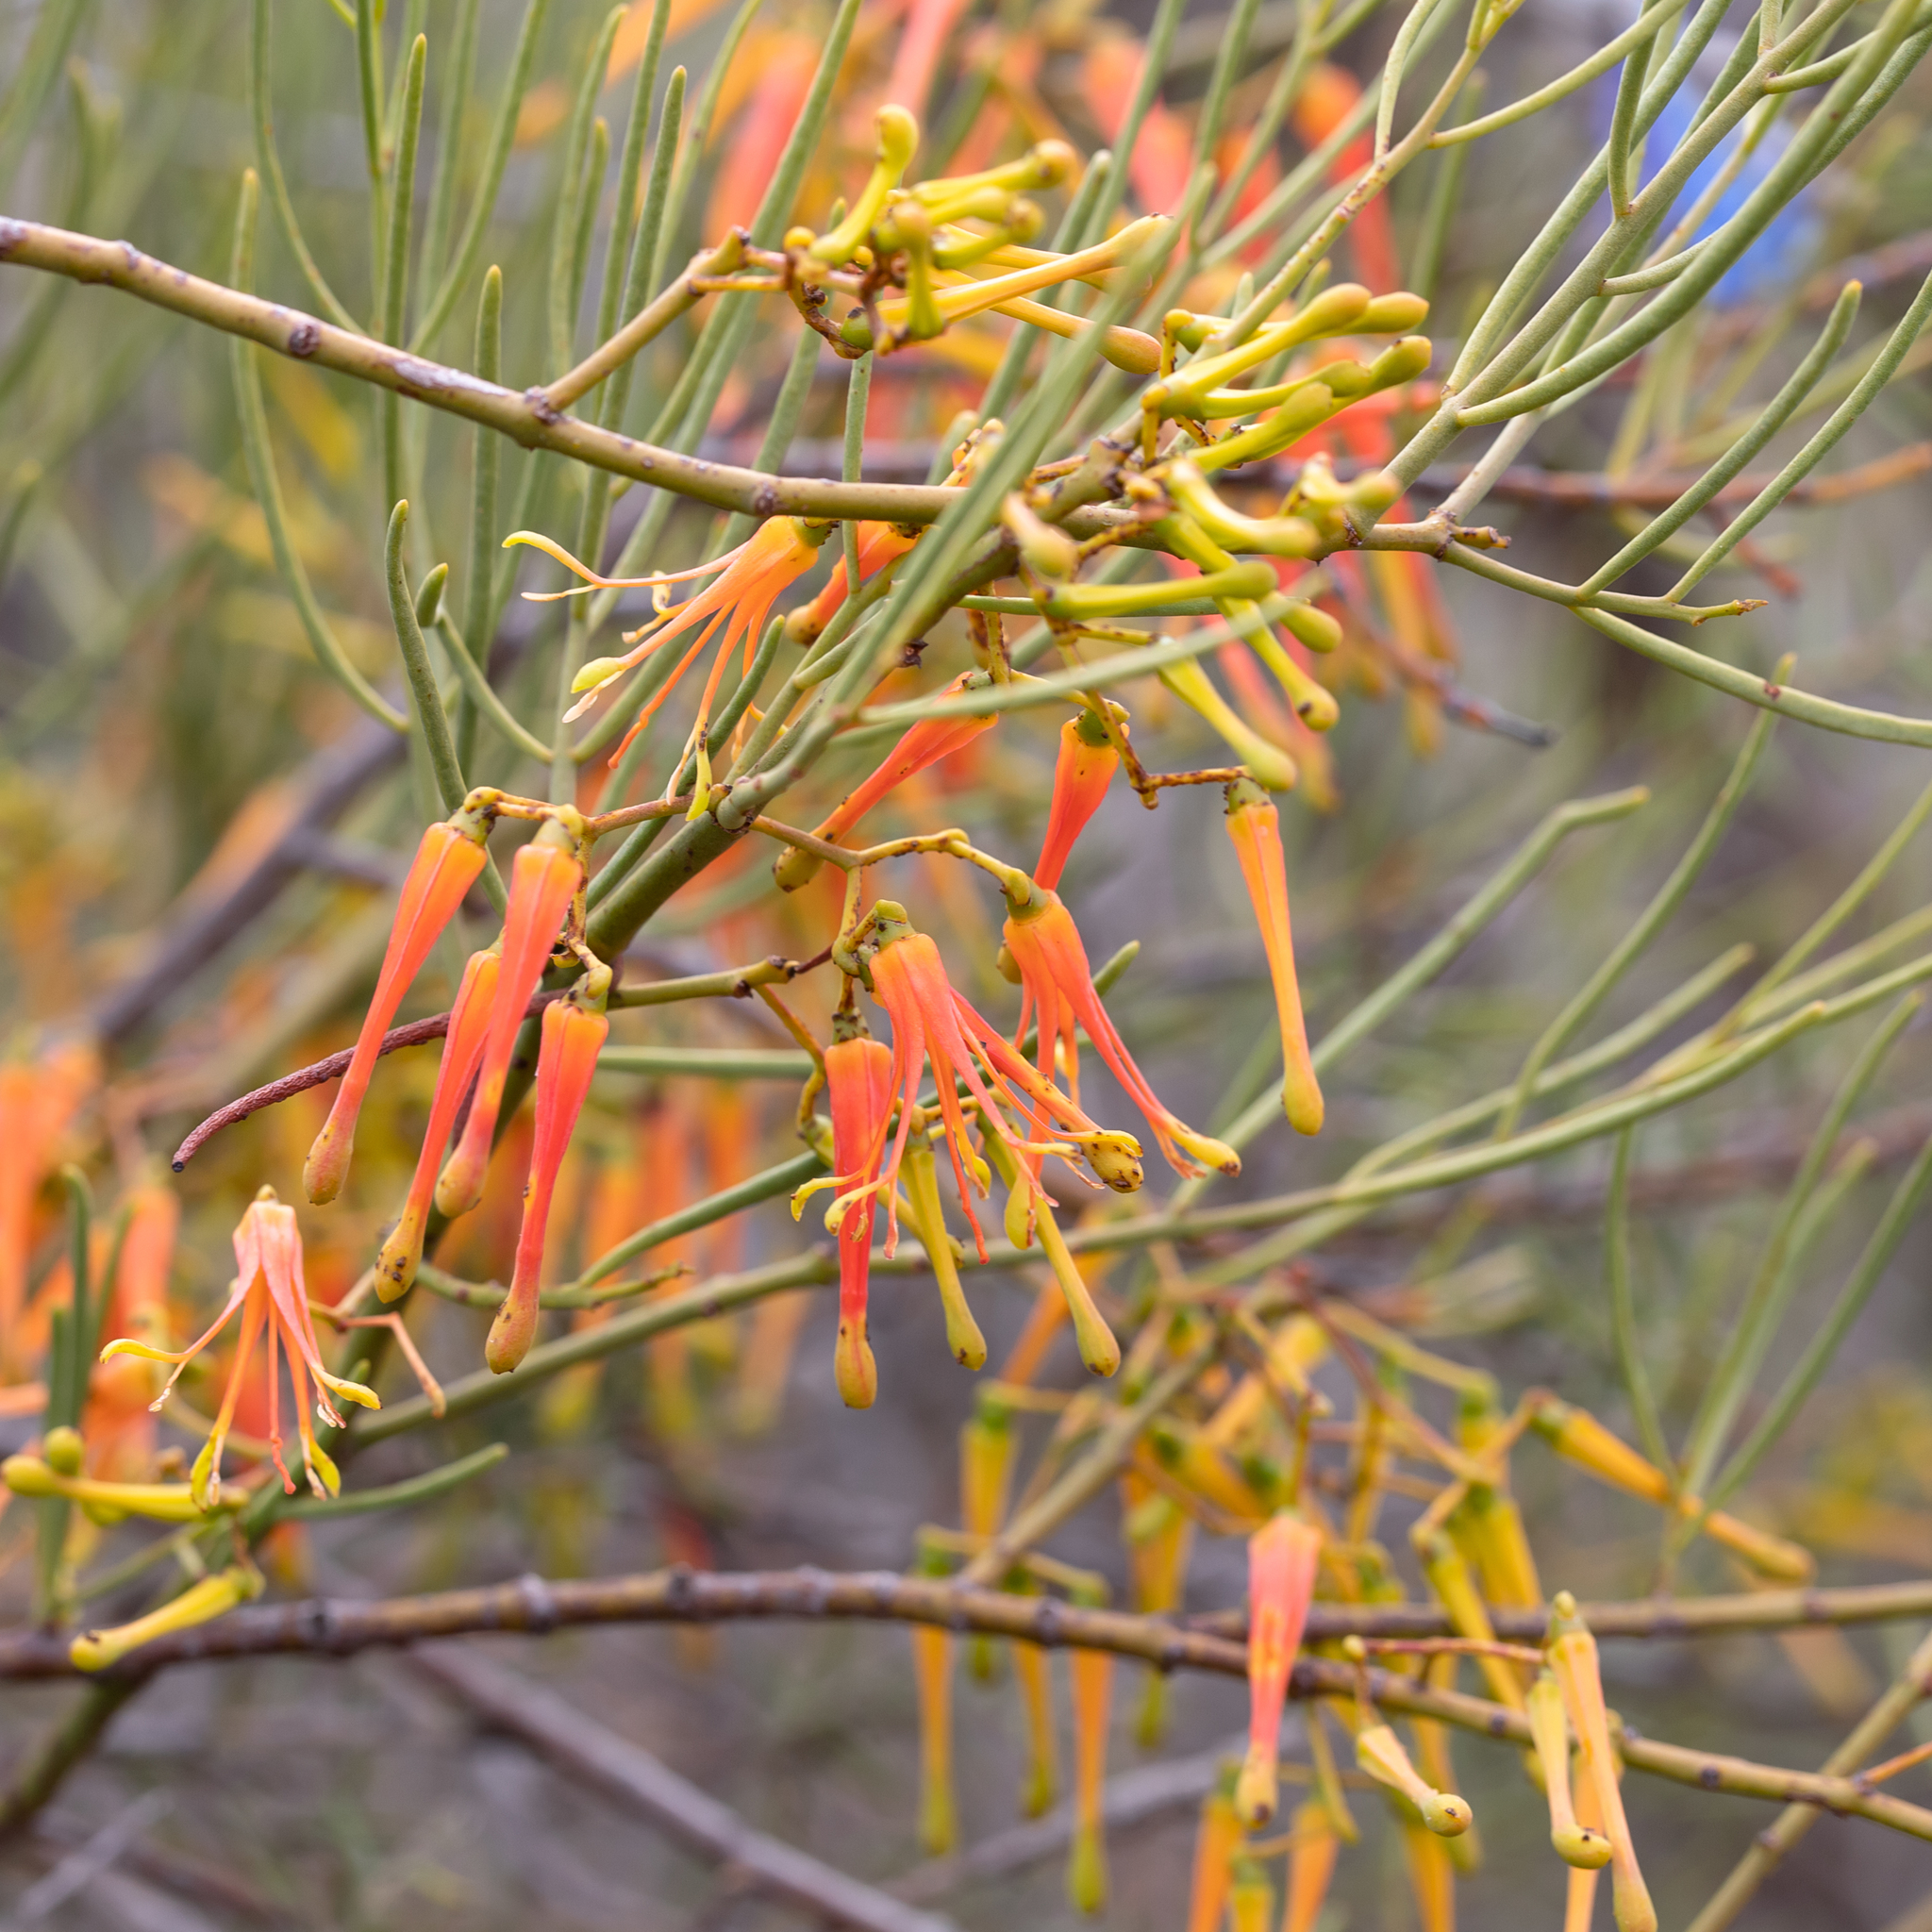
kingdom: Plantae
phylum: Tracheophyta
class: Magnoliopsida
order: Santalales
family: Loranthaceae
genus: Amyema
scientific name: Amyema preissii
